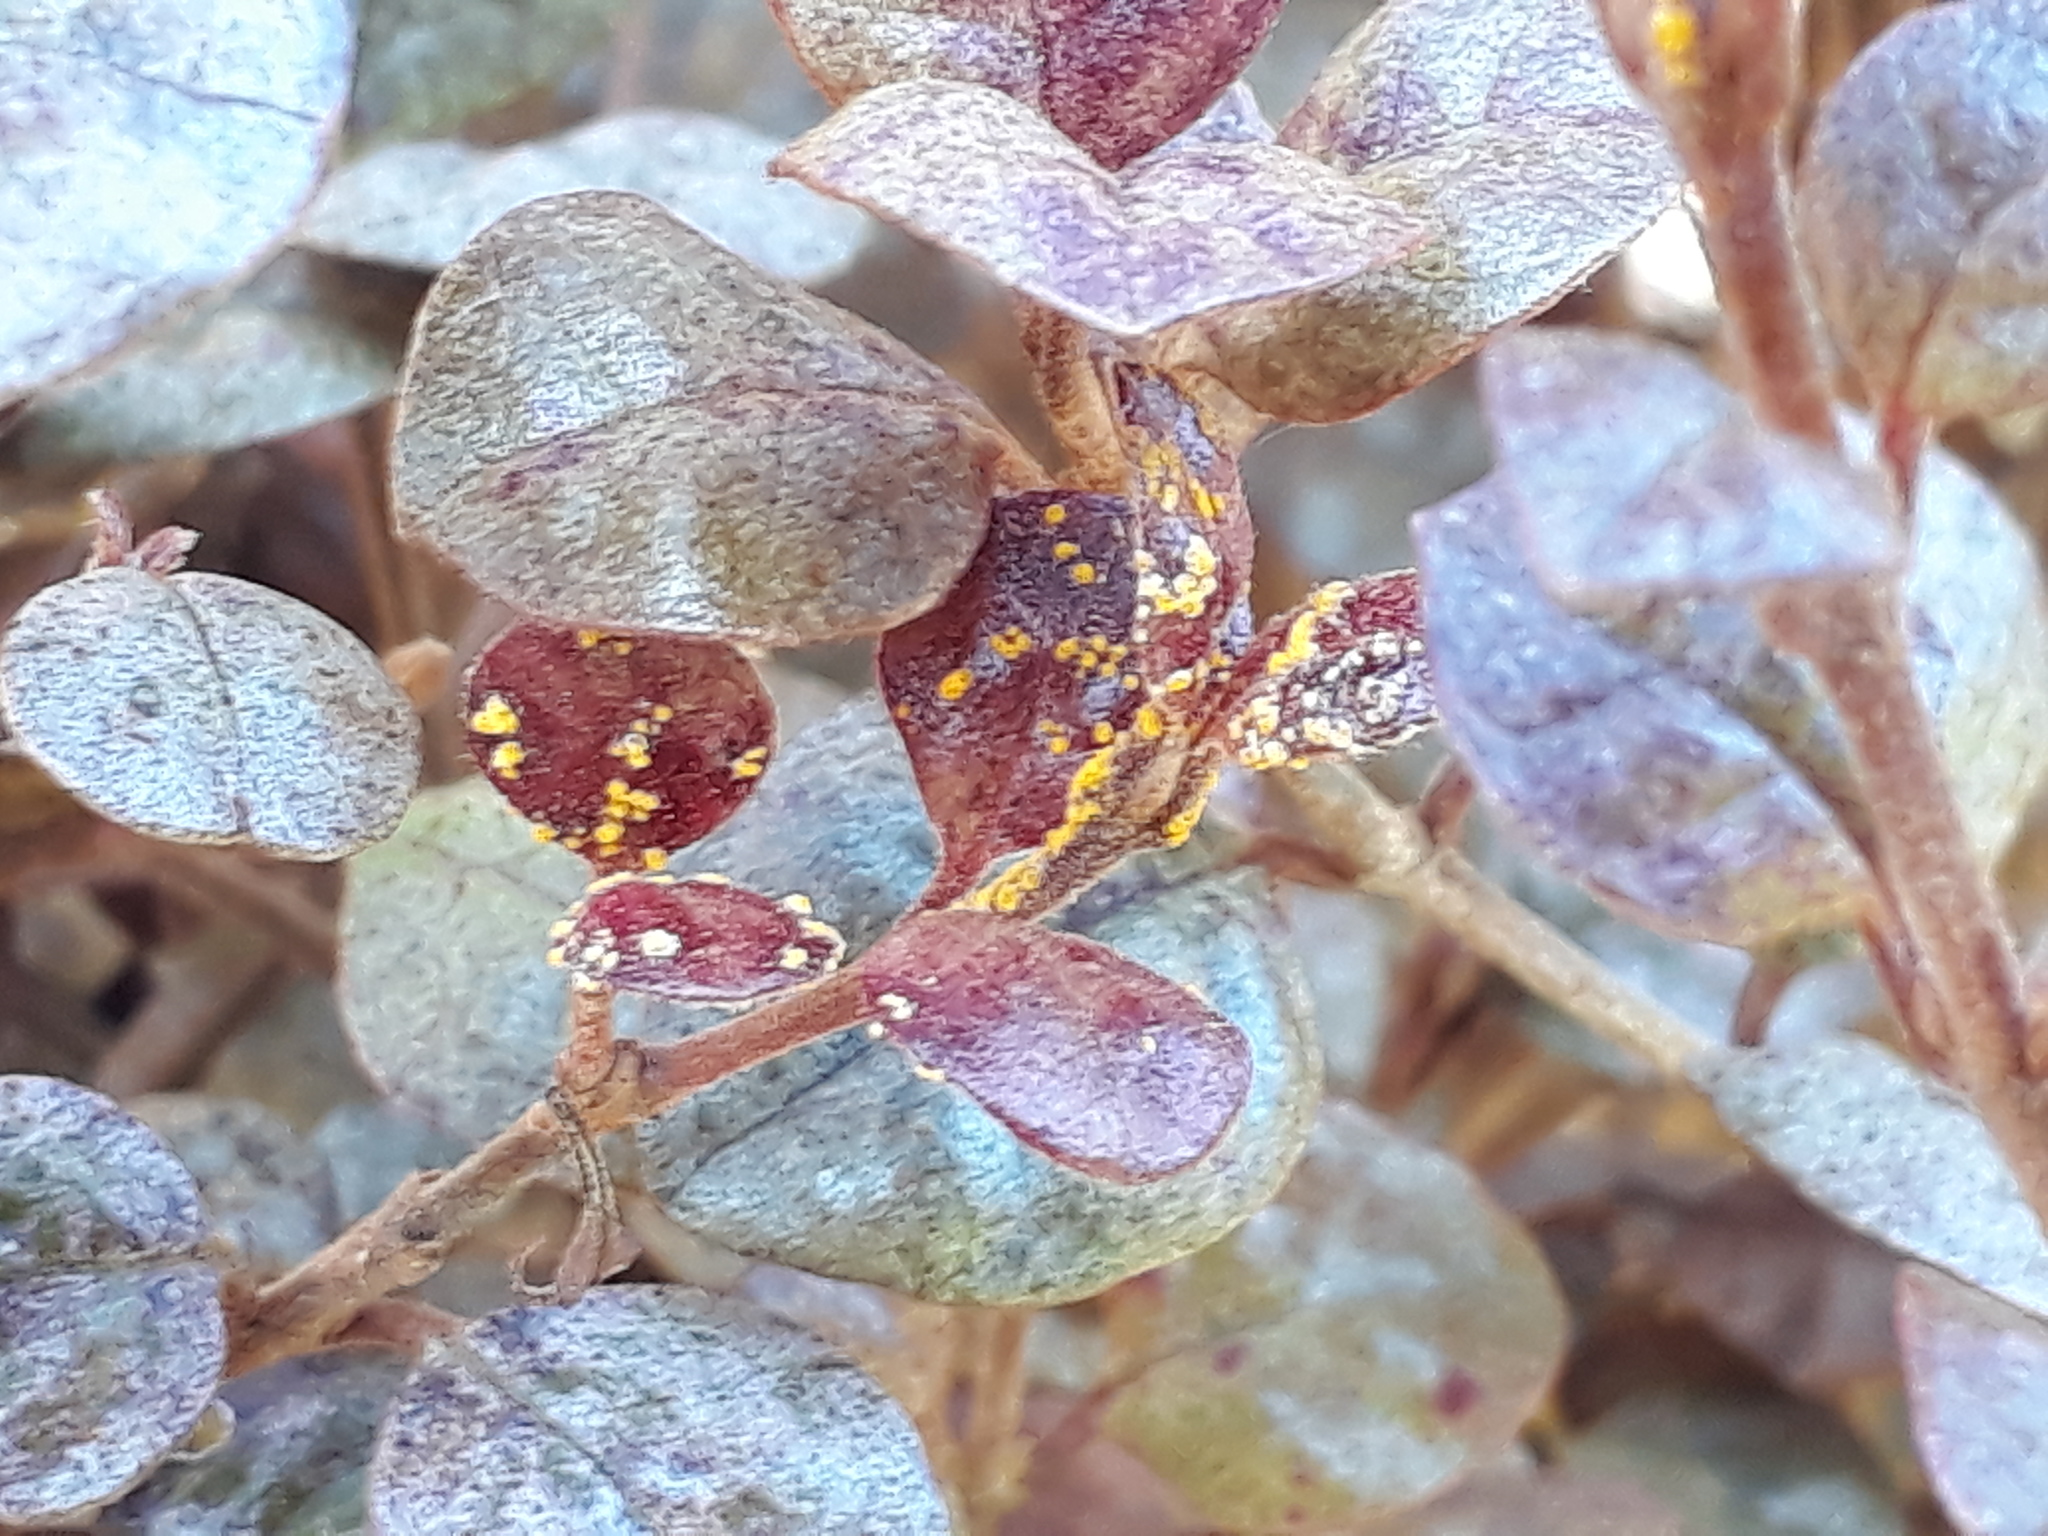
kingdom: Fungi
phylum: Basidiomycota
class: Pucciniomycetes
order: Pucciniales
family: Sphaerophragmiaceae
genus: Austropuccinia
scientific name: Austropuccinia psidii
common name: Myrtle rust
